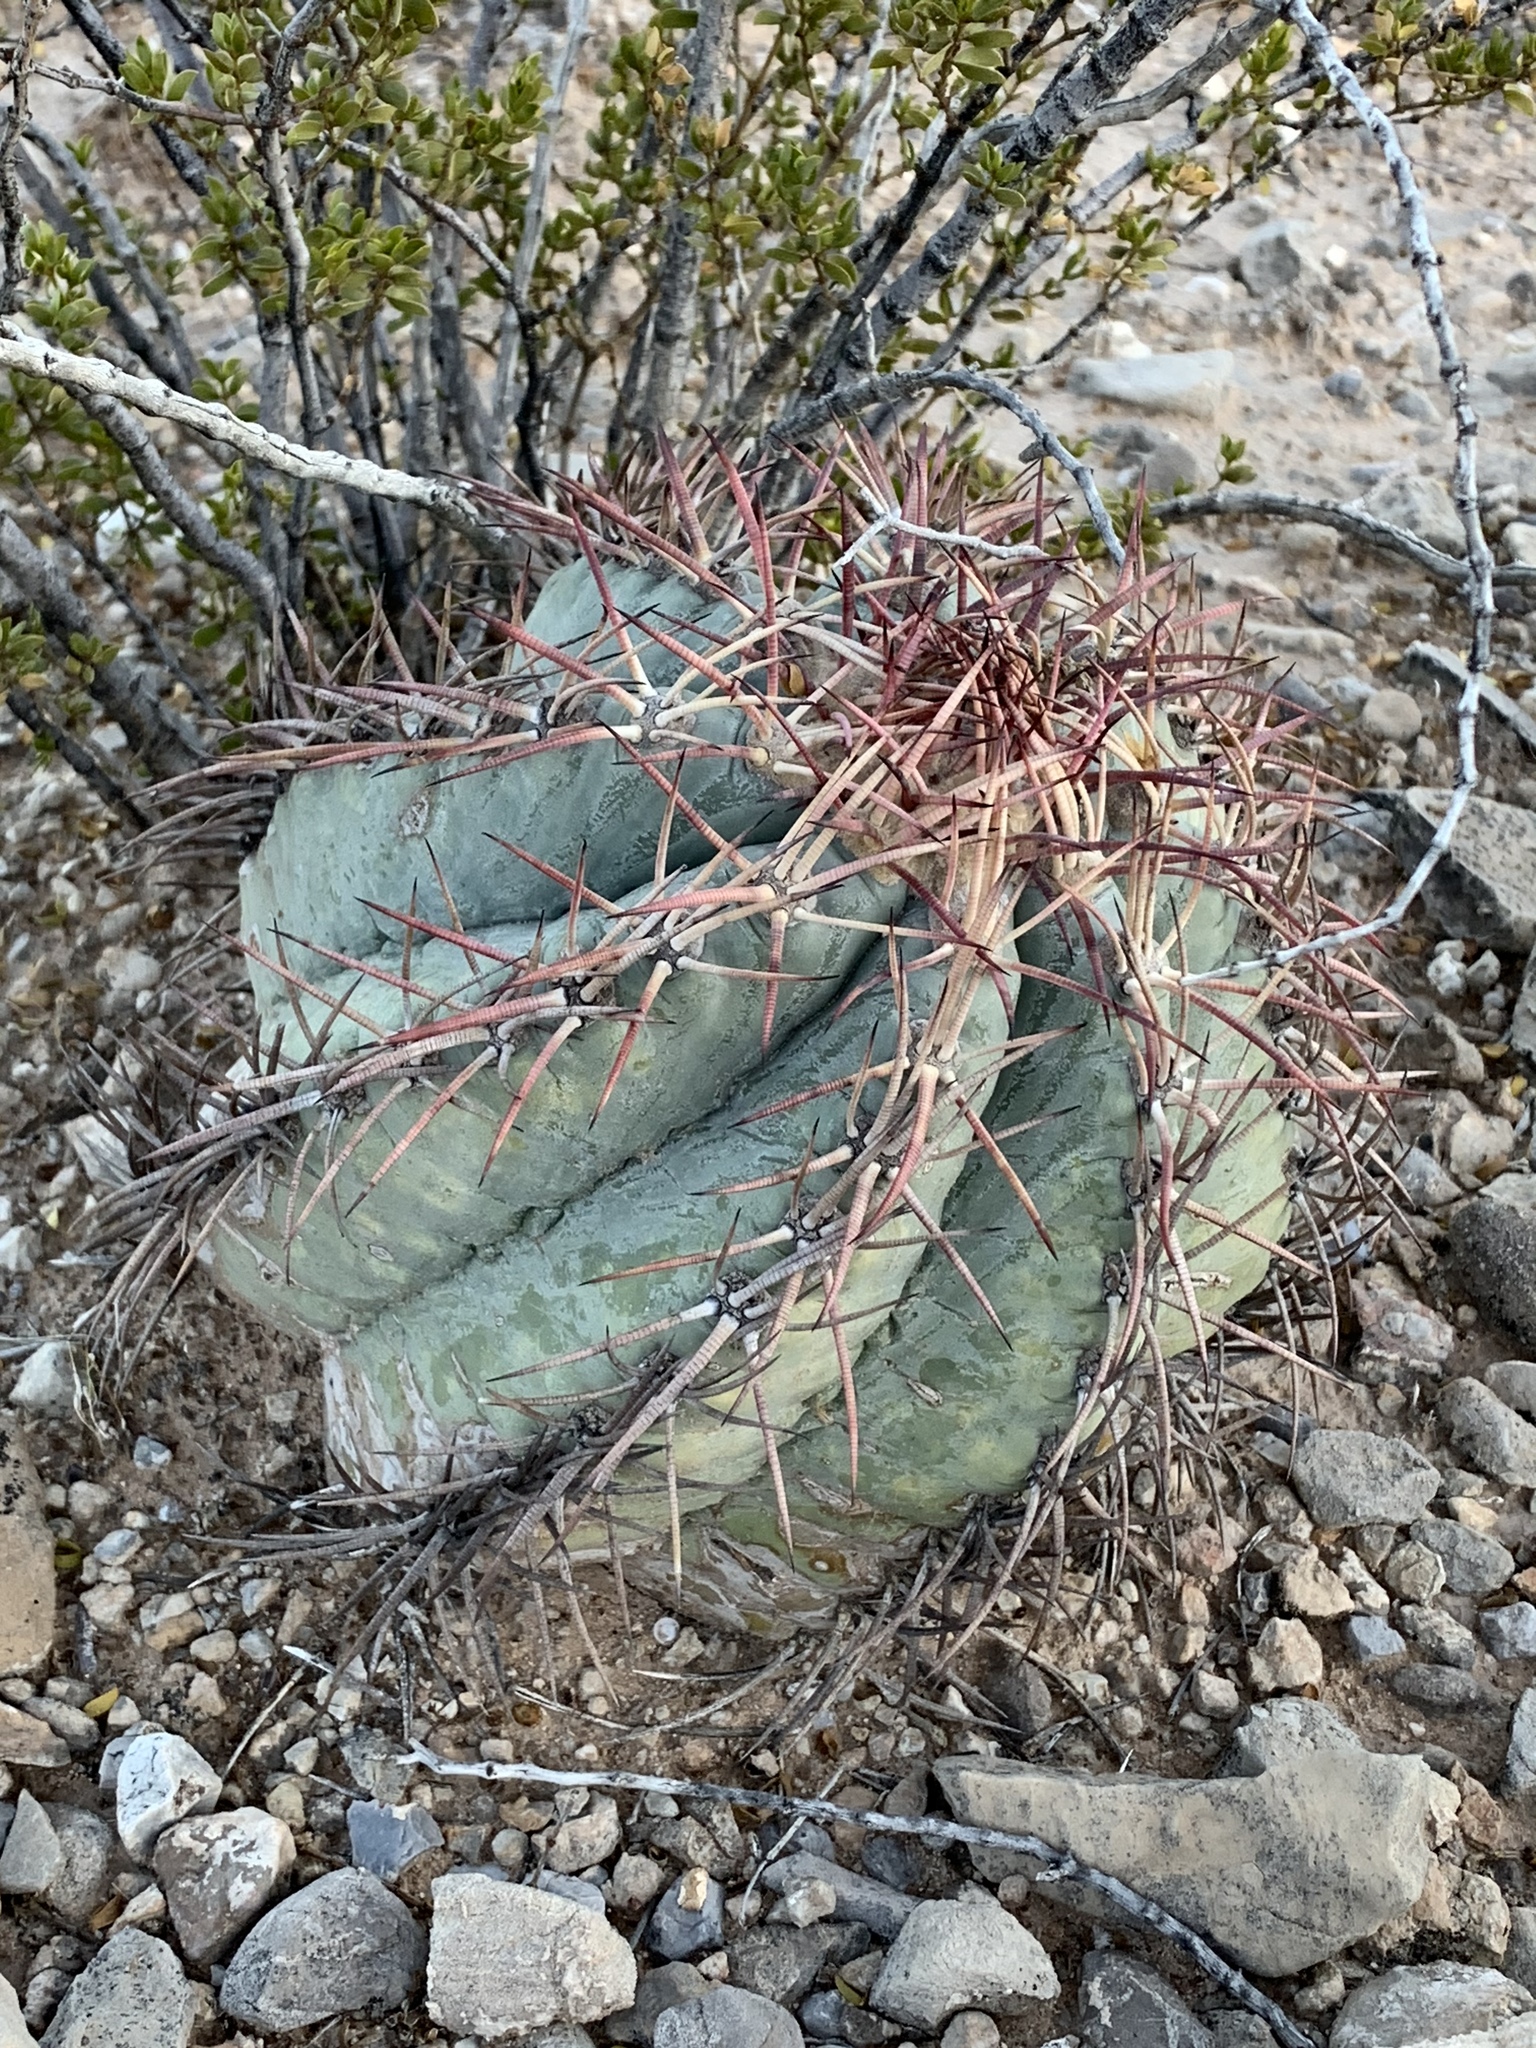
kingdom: Plantae
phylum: Tracheophyta
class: Magnoliopsida
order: Caryophyllales
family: Cactaceae
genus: Echinocactus
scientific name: Echinocactus horizonthalonius
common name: Devilshead
